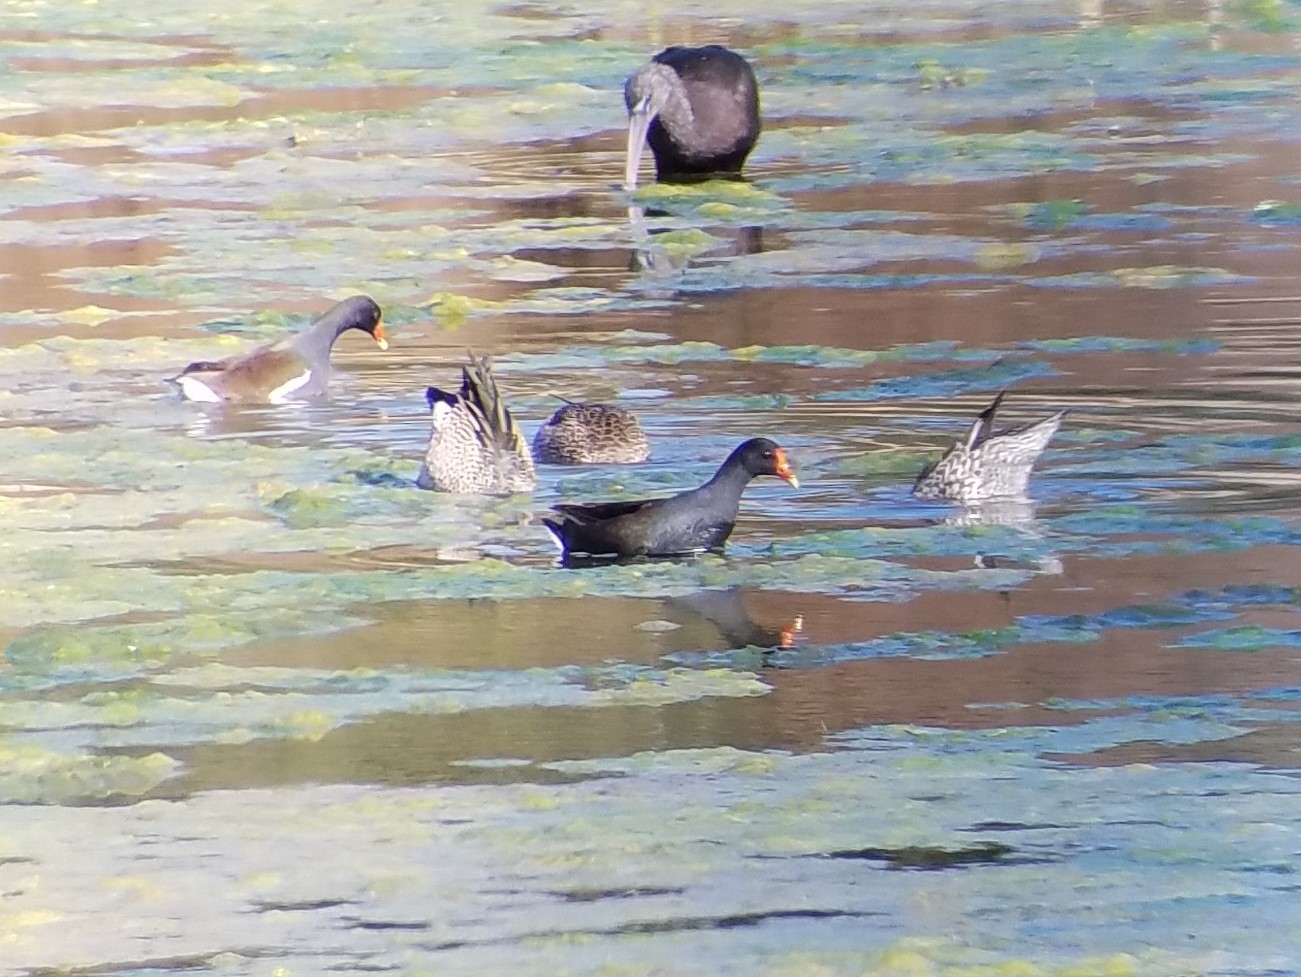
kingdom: Animalia
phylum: Chordata
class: Aves
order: Gruiformes
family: Rallidae
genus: Gallinula
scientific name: Gallinula chloropus
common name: Common moorhen
